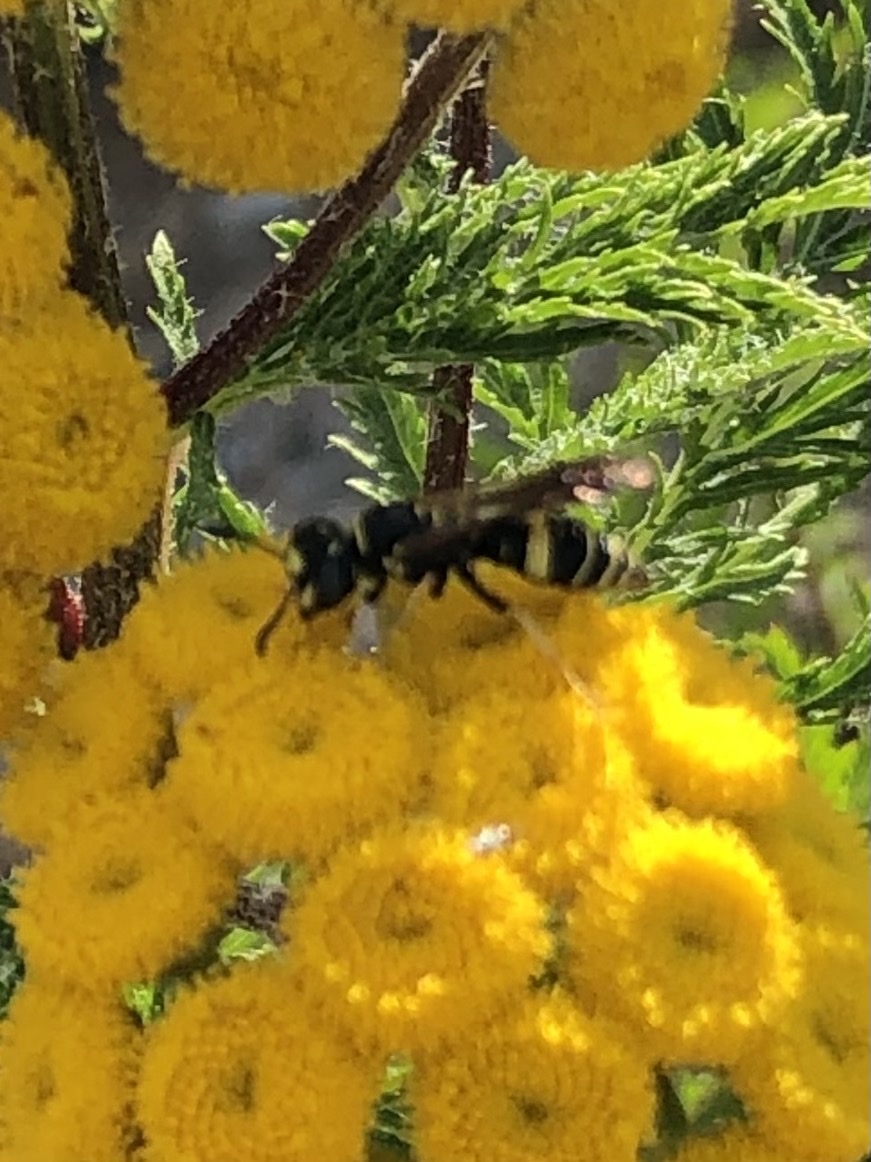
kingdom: Animalia
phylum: Arthropoda
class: Insecta
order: Hymenoptera
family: Crabronidae
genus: Philanthus
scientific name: Philanthus gibbosus
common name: Humped beewolf
